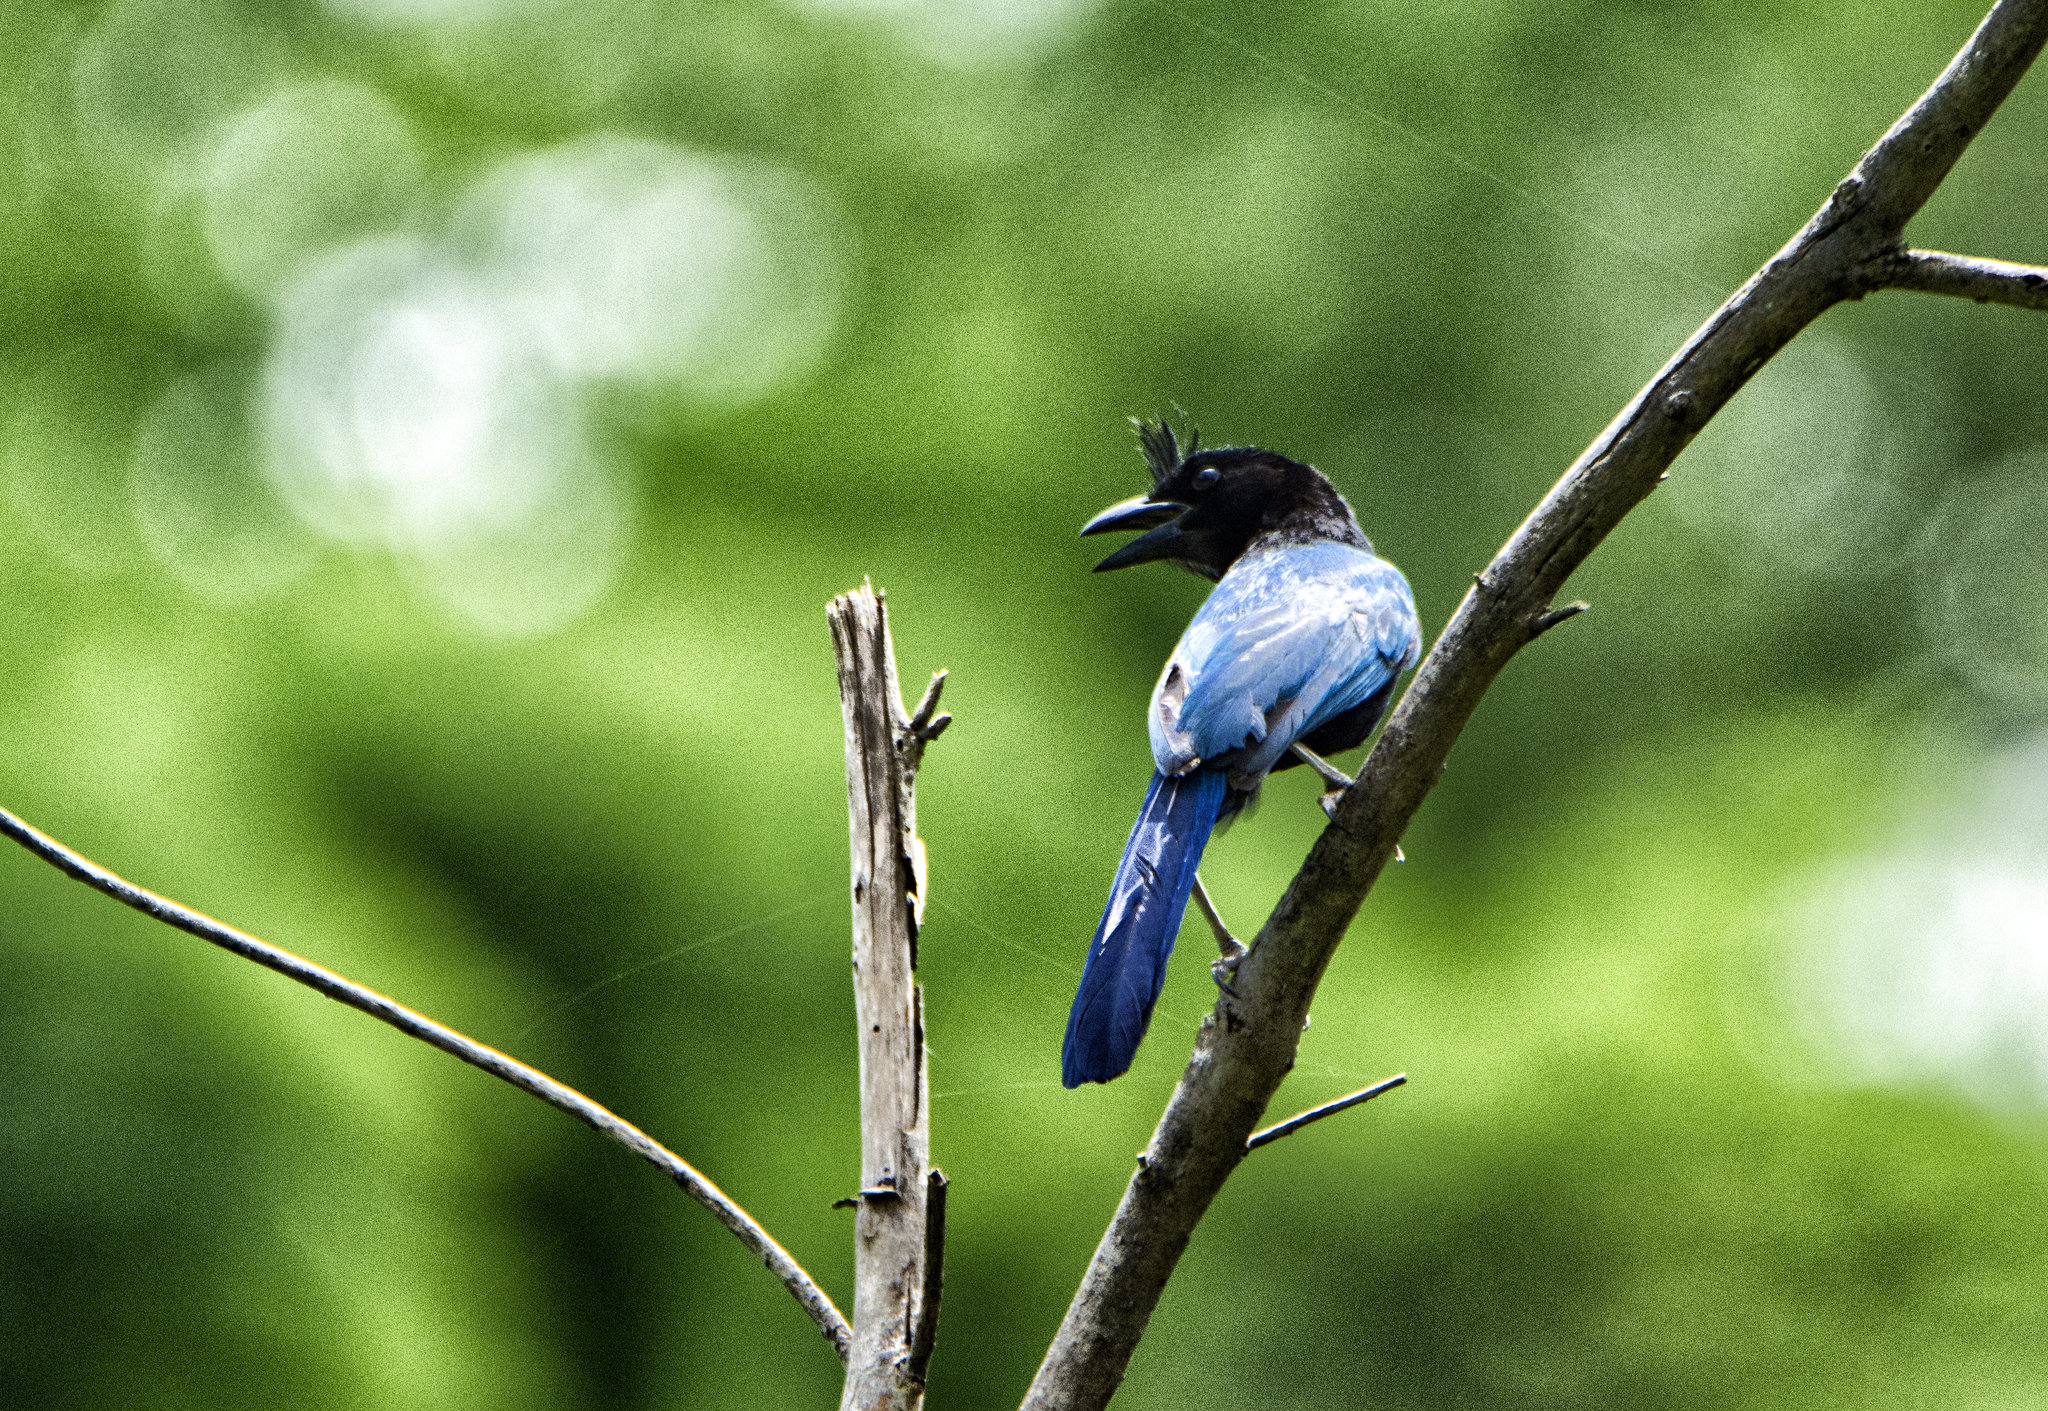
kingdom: Animalia
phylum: Chordata
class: Aves
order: Passeriformes
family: Corvidae
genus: Cyanocorax
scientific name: Cyanocorax sanblasianus
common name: San blas jay
